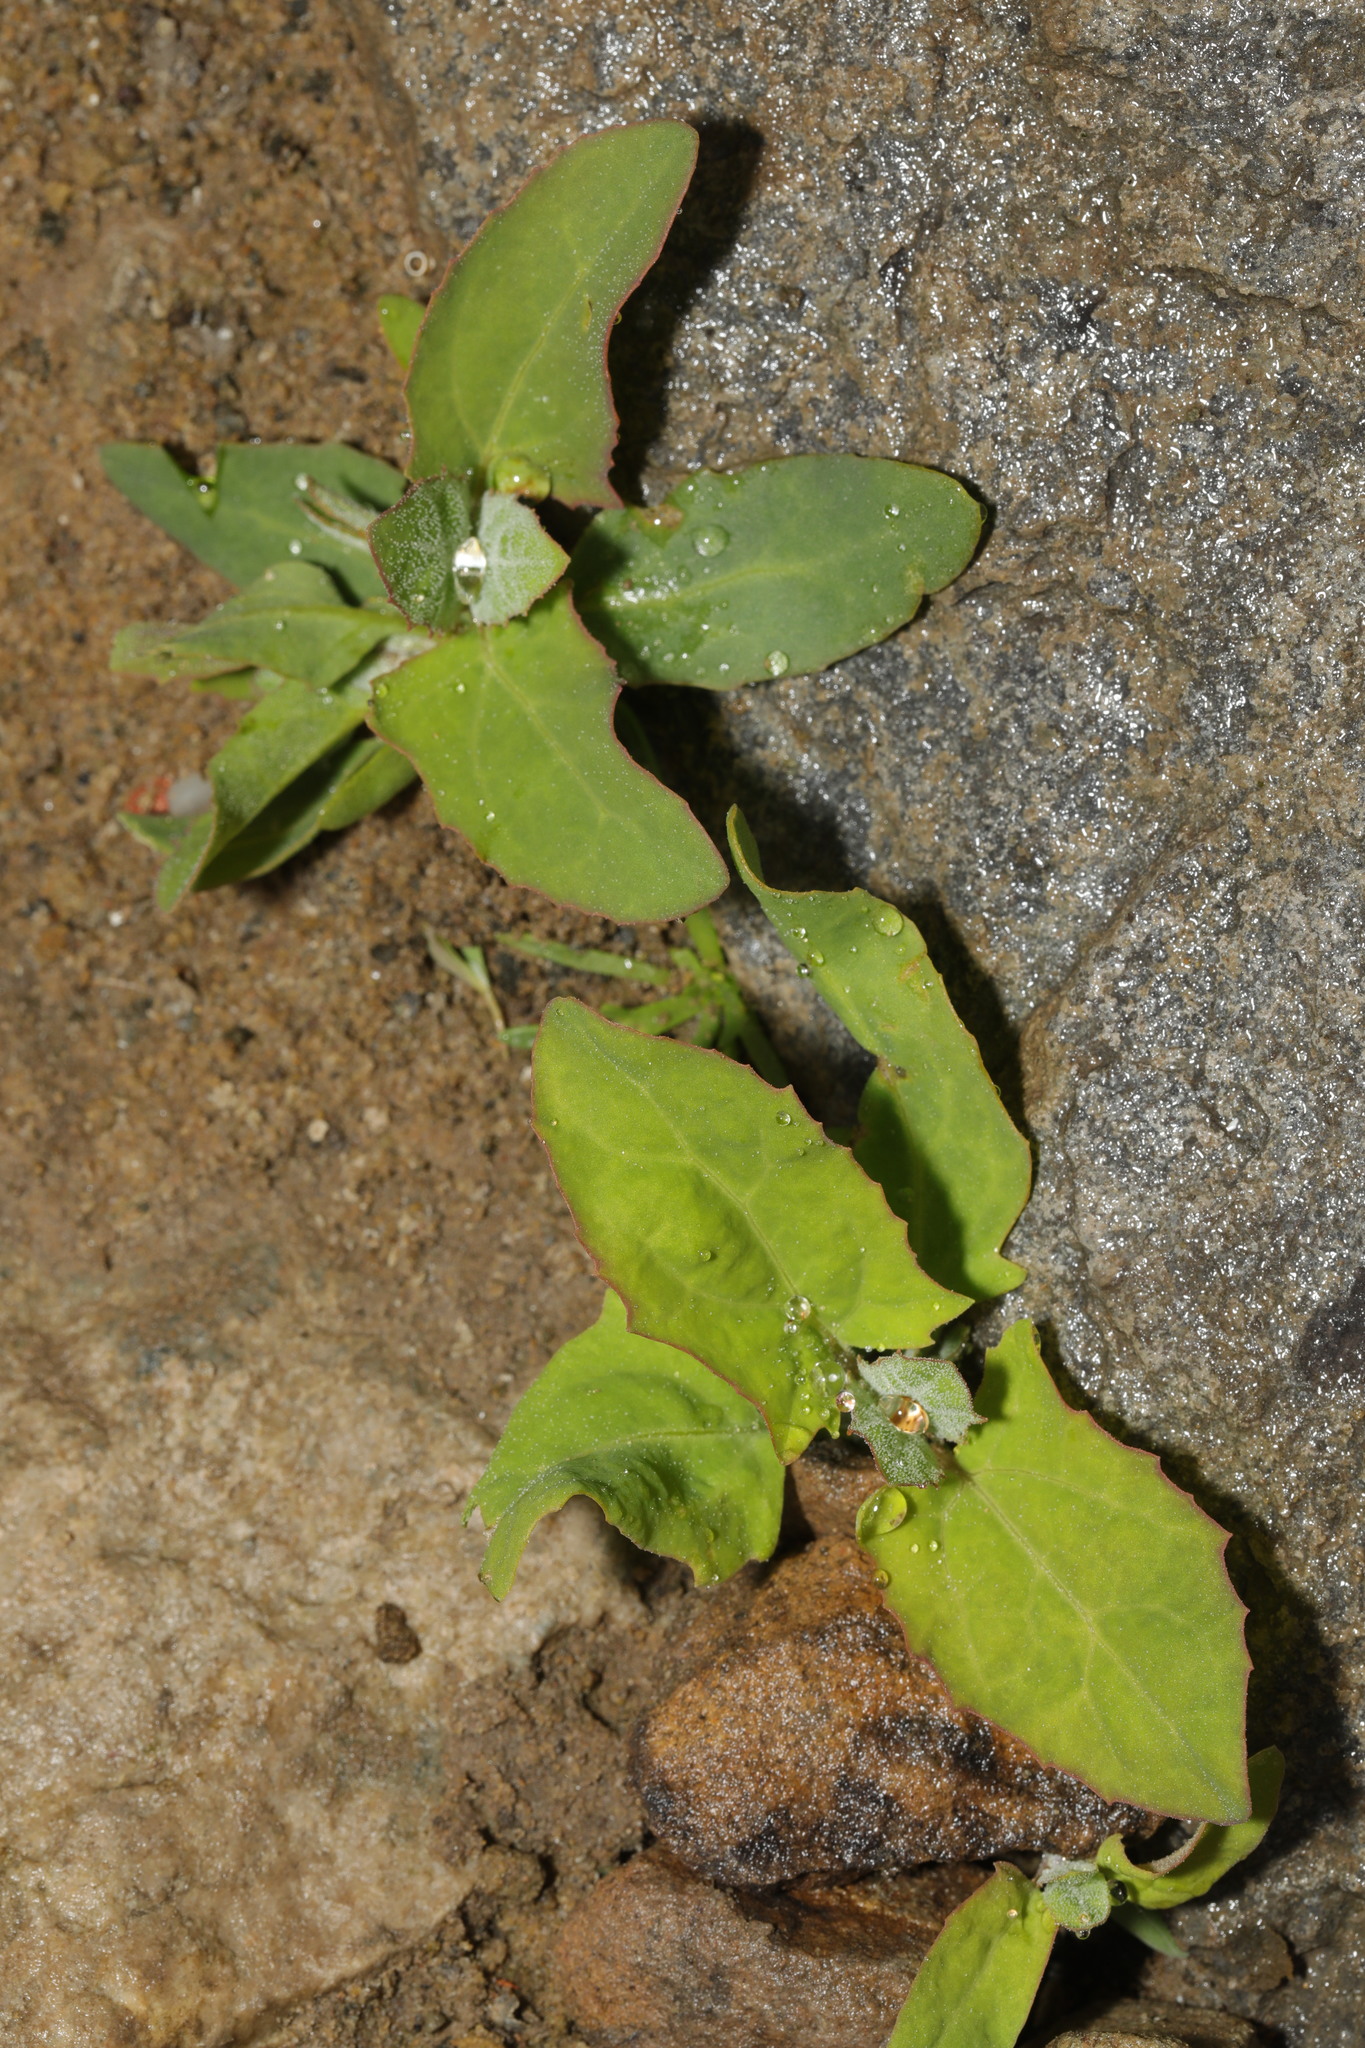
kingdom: Plantae
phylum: Tracheophyta
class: Magnoliopsida
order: Caryophyllales
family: Amaranthaceae
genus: Atriplex
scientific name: Atriplex prostrata
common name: Spear-leaved orache
